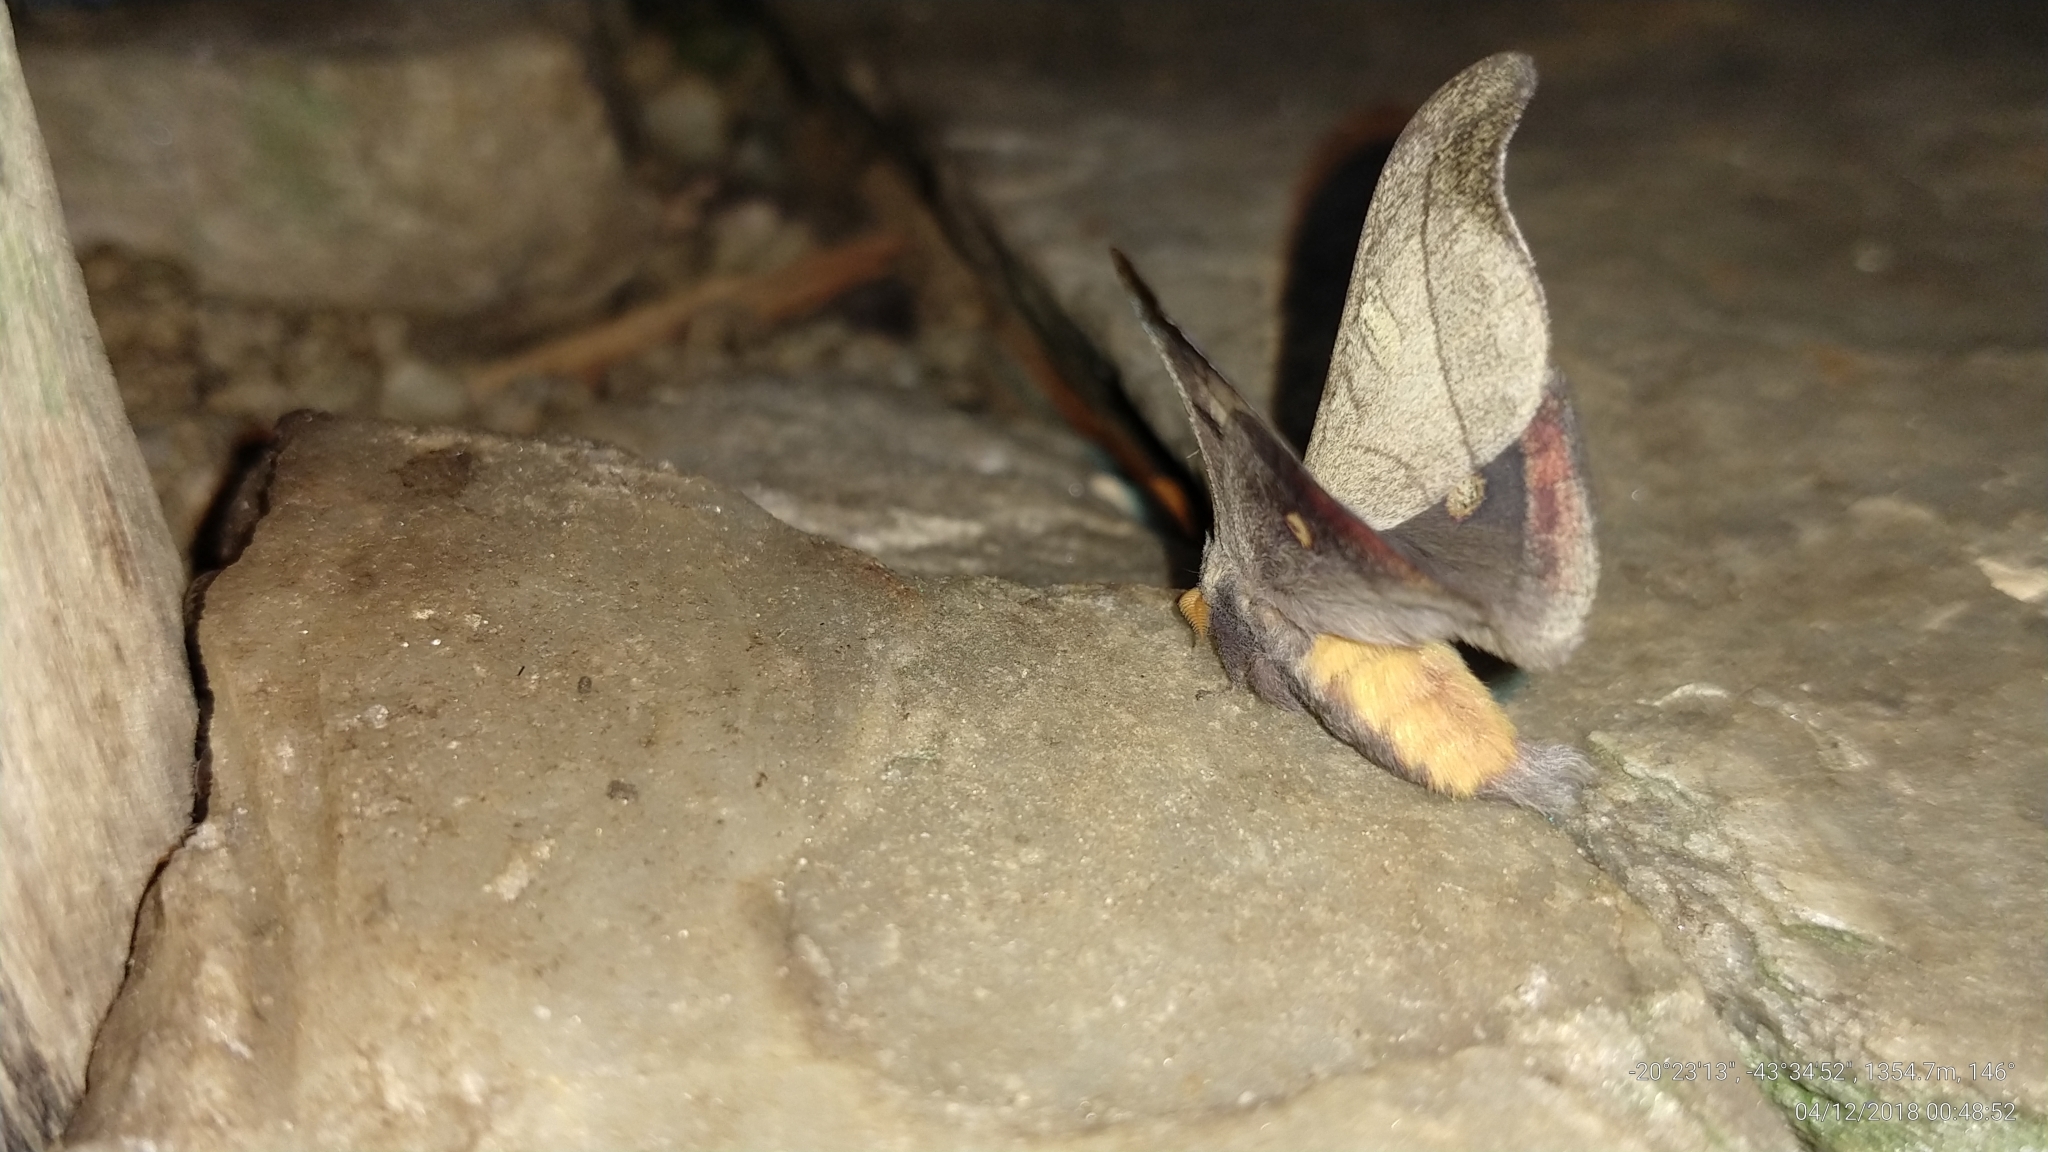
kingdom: Animalia
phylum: Arthropoda
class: Insecta
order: Lepidoptera
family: Saturniidae
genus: Hylesia
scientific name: Hylesia scortina
